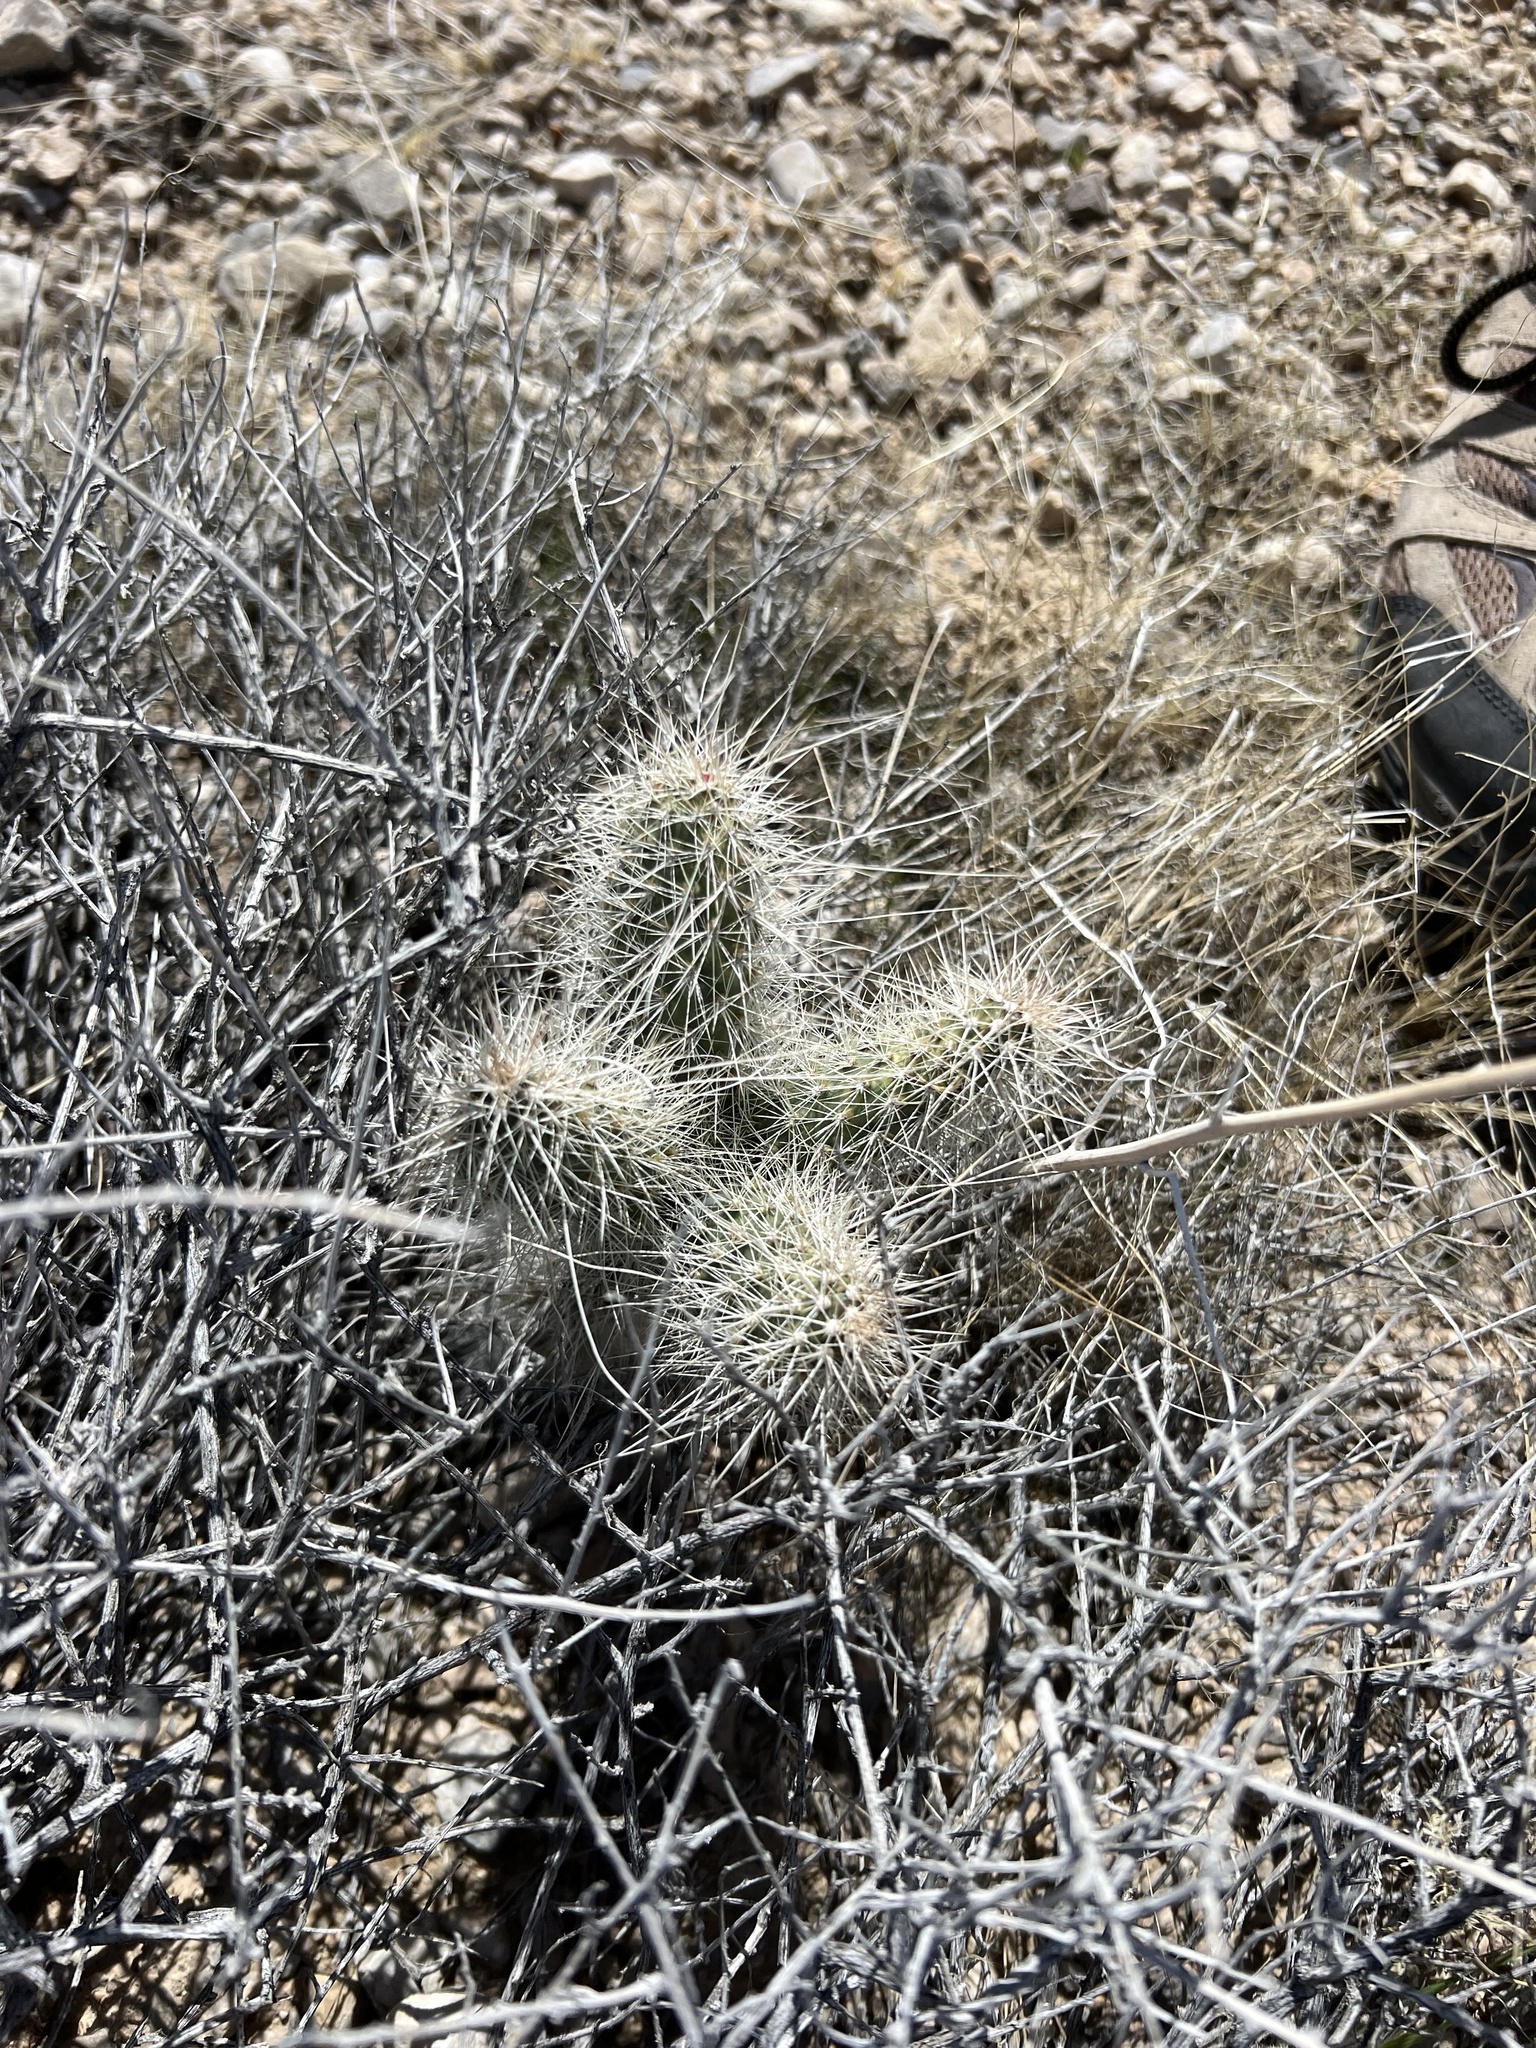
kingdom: Plantae
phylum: Tracheophyta
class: Magnoliopsida
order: Caryophyllales
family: Cactaceae
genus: Opuntia
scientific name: Opuntia polyacantha
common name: Plains prickly-pear
